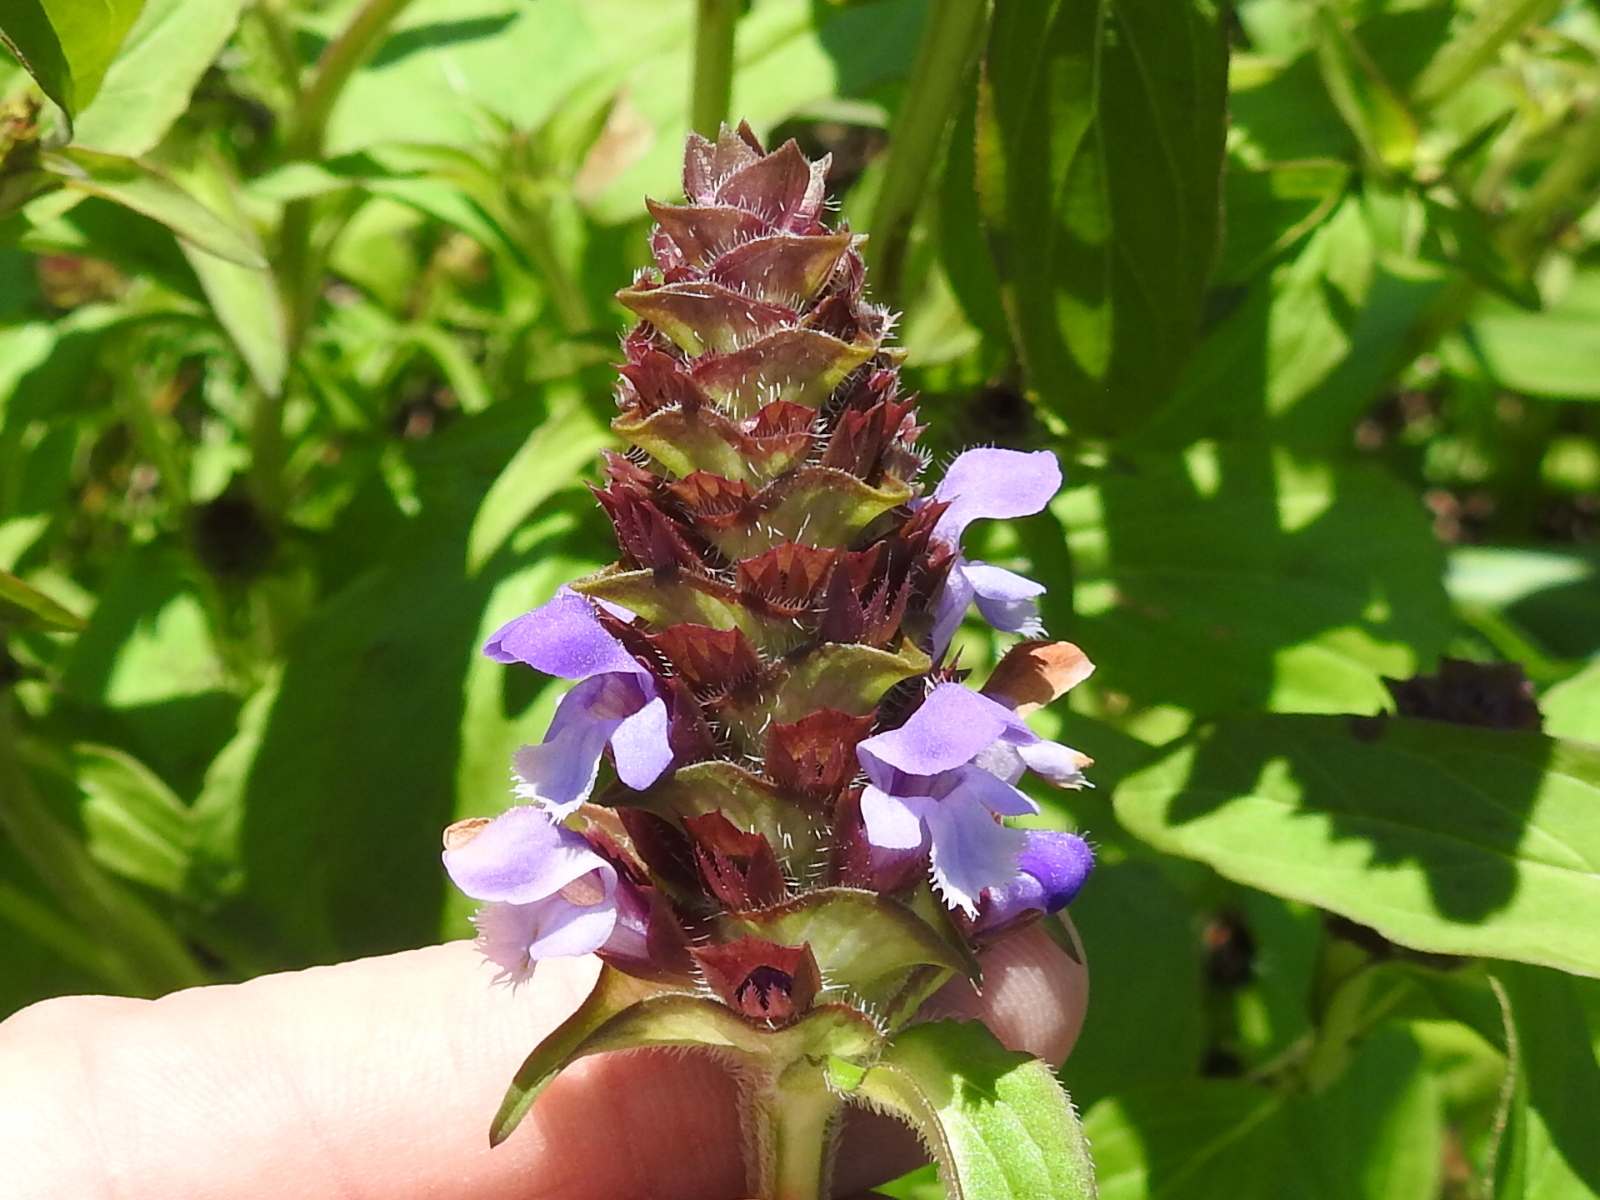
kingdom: Plantae
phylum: Tracheophyta
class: Magnoliopsida
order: Lamiales
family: Lamiaceae
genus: Prunella
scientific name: Prunella vulgaris
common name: Heal-all
